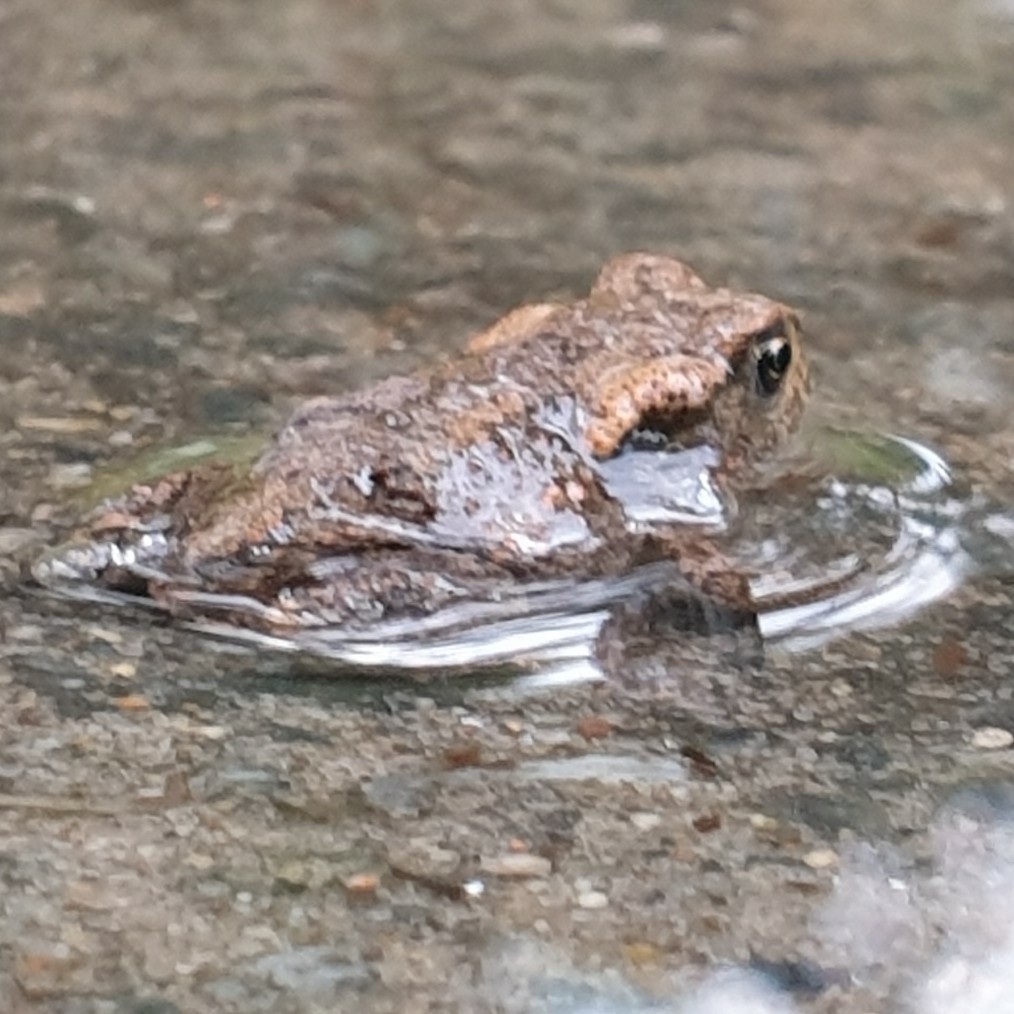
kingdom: Animalia
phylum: Chordata
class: Amphibia
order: Anura
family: Bufonidae
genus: Bufo
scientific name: Bufo bufo
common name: Common toad
